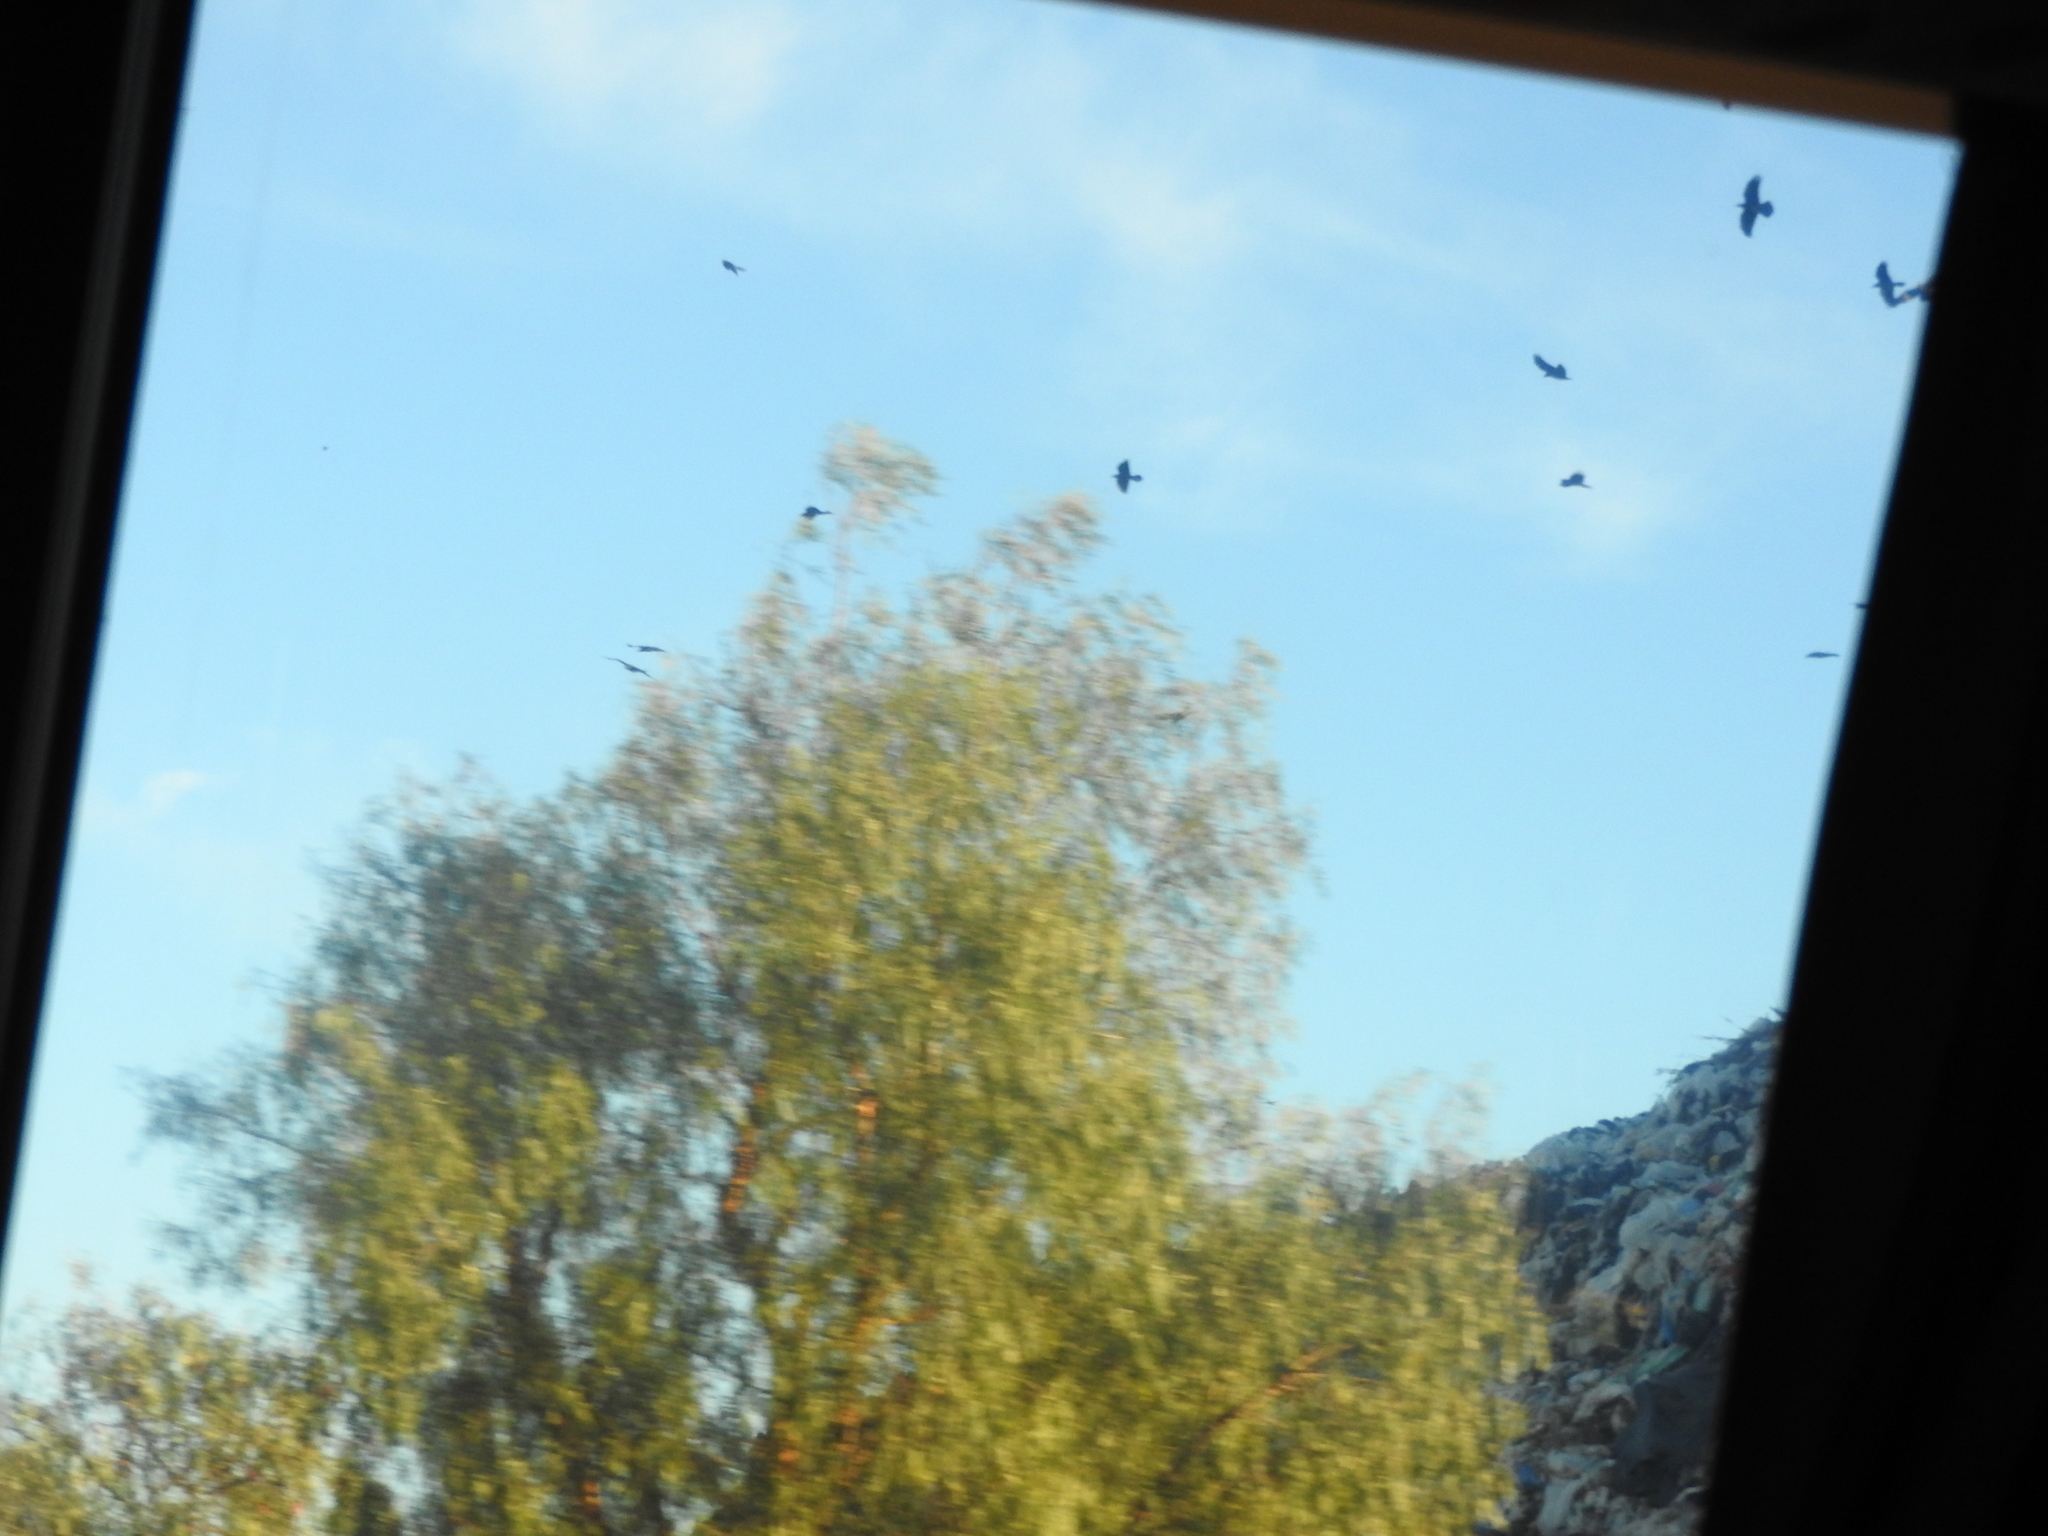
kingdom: Animalia
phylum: Chordata
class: Aves
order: Passeriformes
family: Corvidae
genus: Corvus
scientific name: Corvus corax
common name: Common raven
